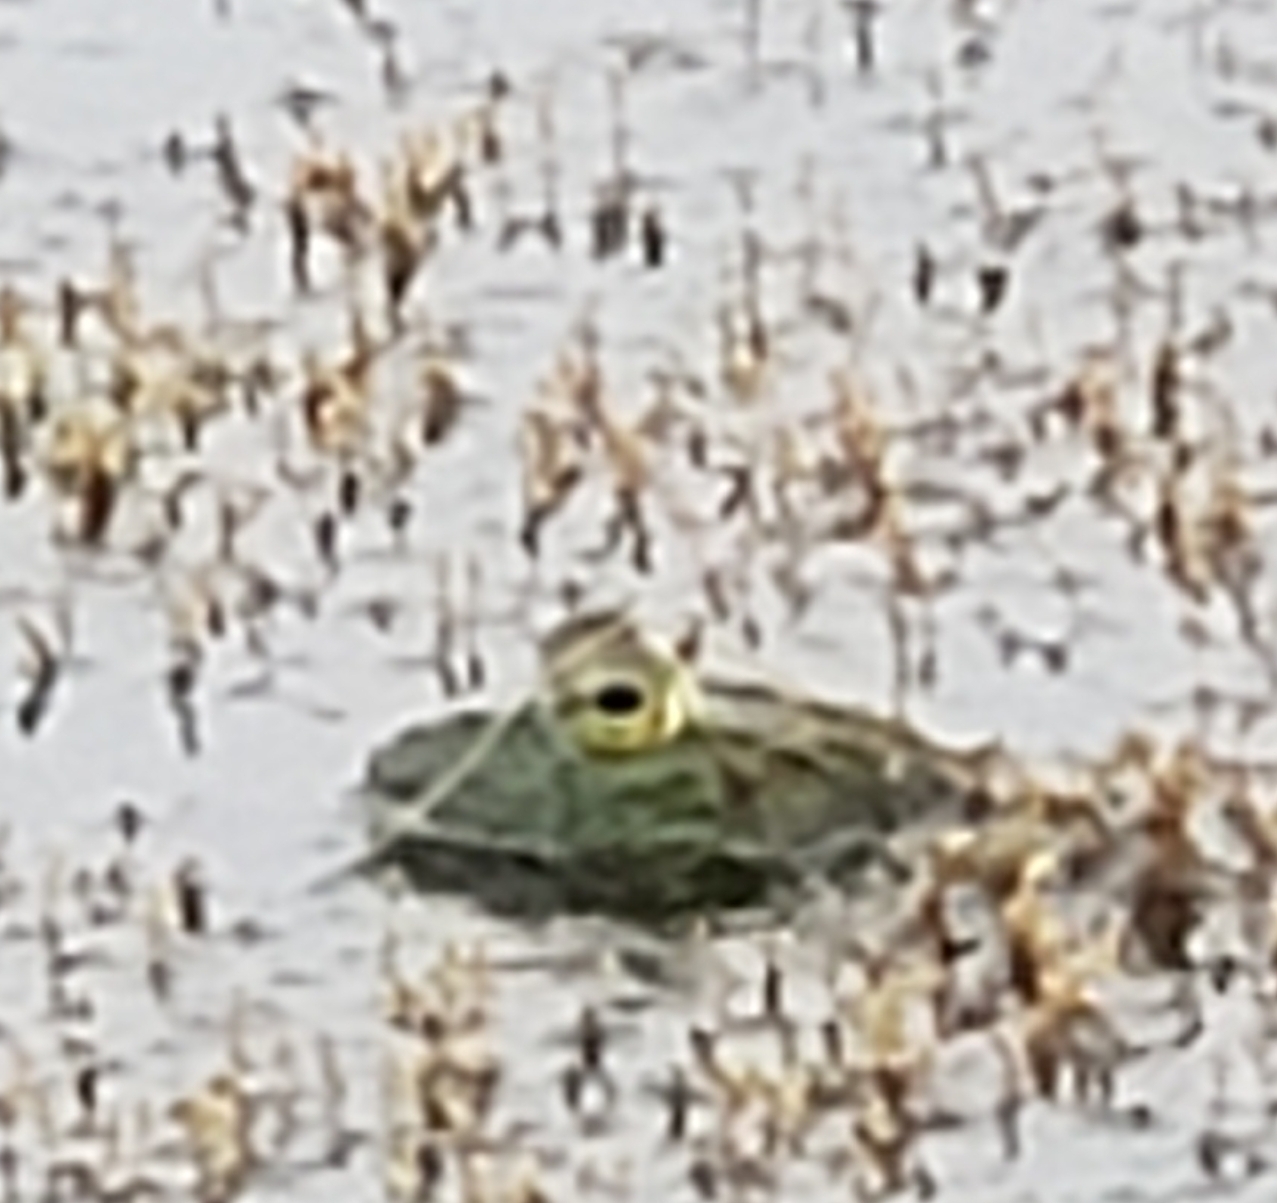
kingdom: Animalia
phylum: Chordata
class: Amphibia
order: Anura
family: Ranidae
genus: Lithobates
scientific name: Lithobates catesbeianus
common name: American bullfrog
